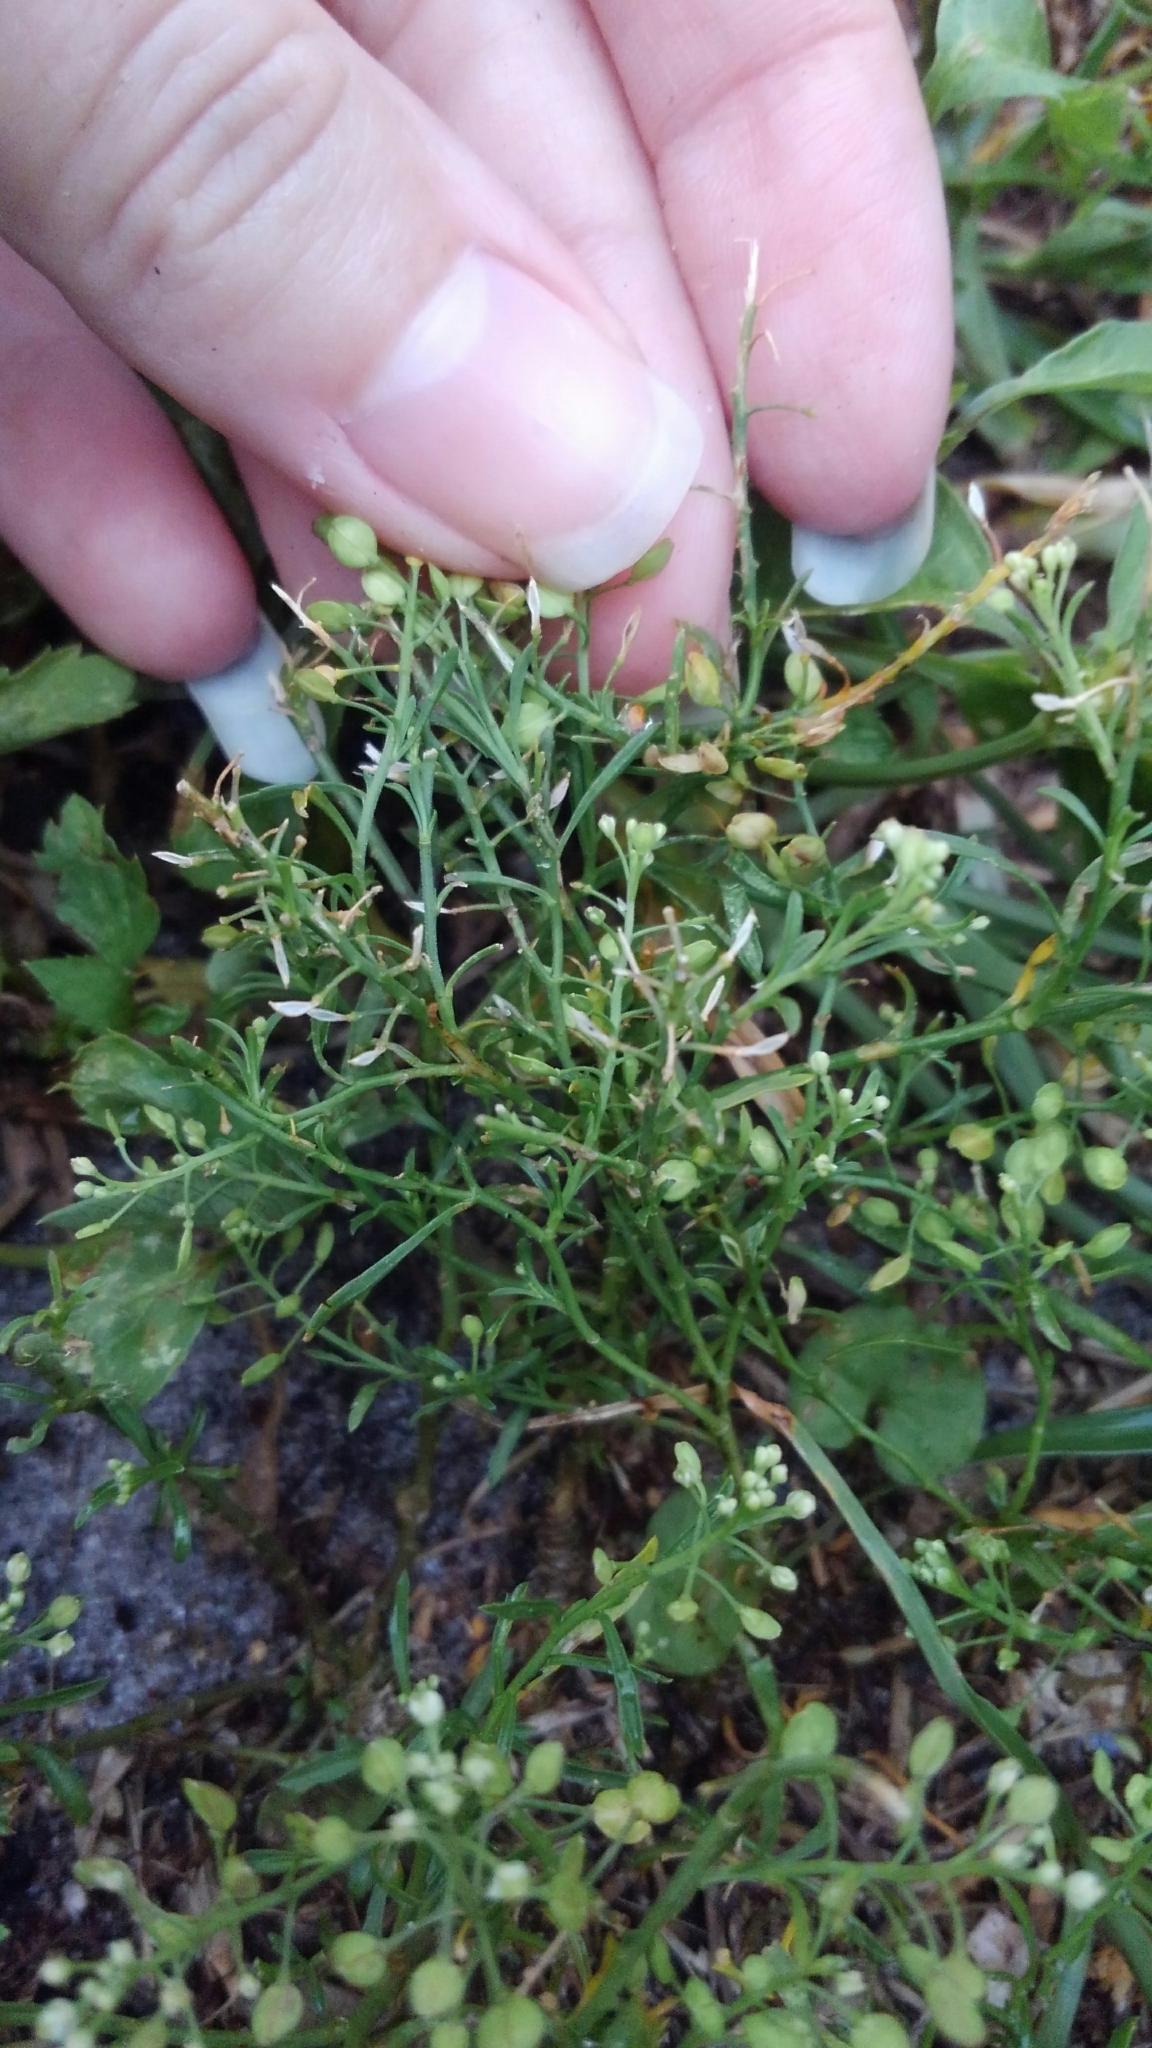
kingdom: Plantae
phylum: Tracheophyta
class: Magnoliopsida
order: Brassicales
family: Brassicaceae
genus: Lepidium
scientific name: Lepidium virginicum
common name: Least pepperwort
